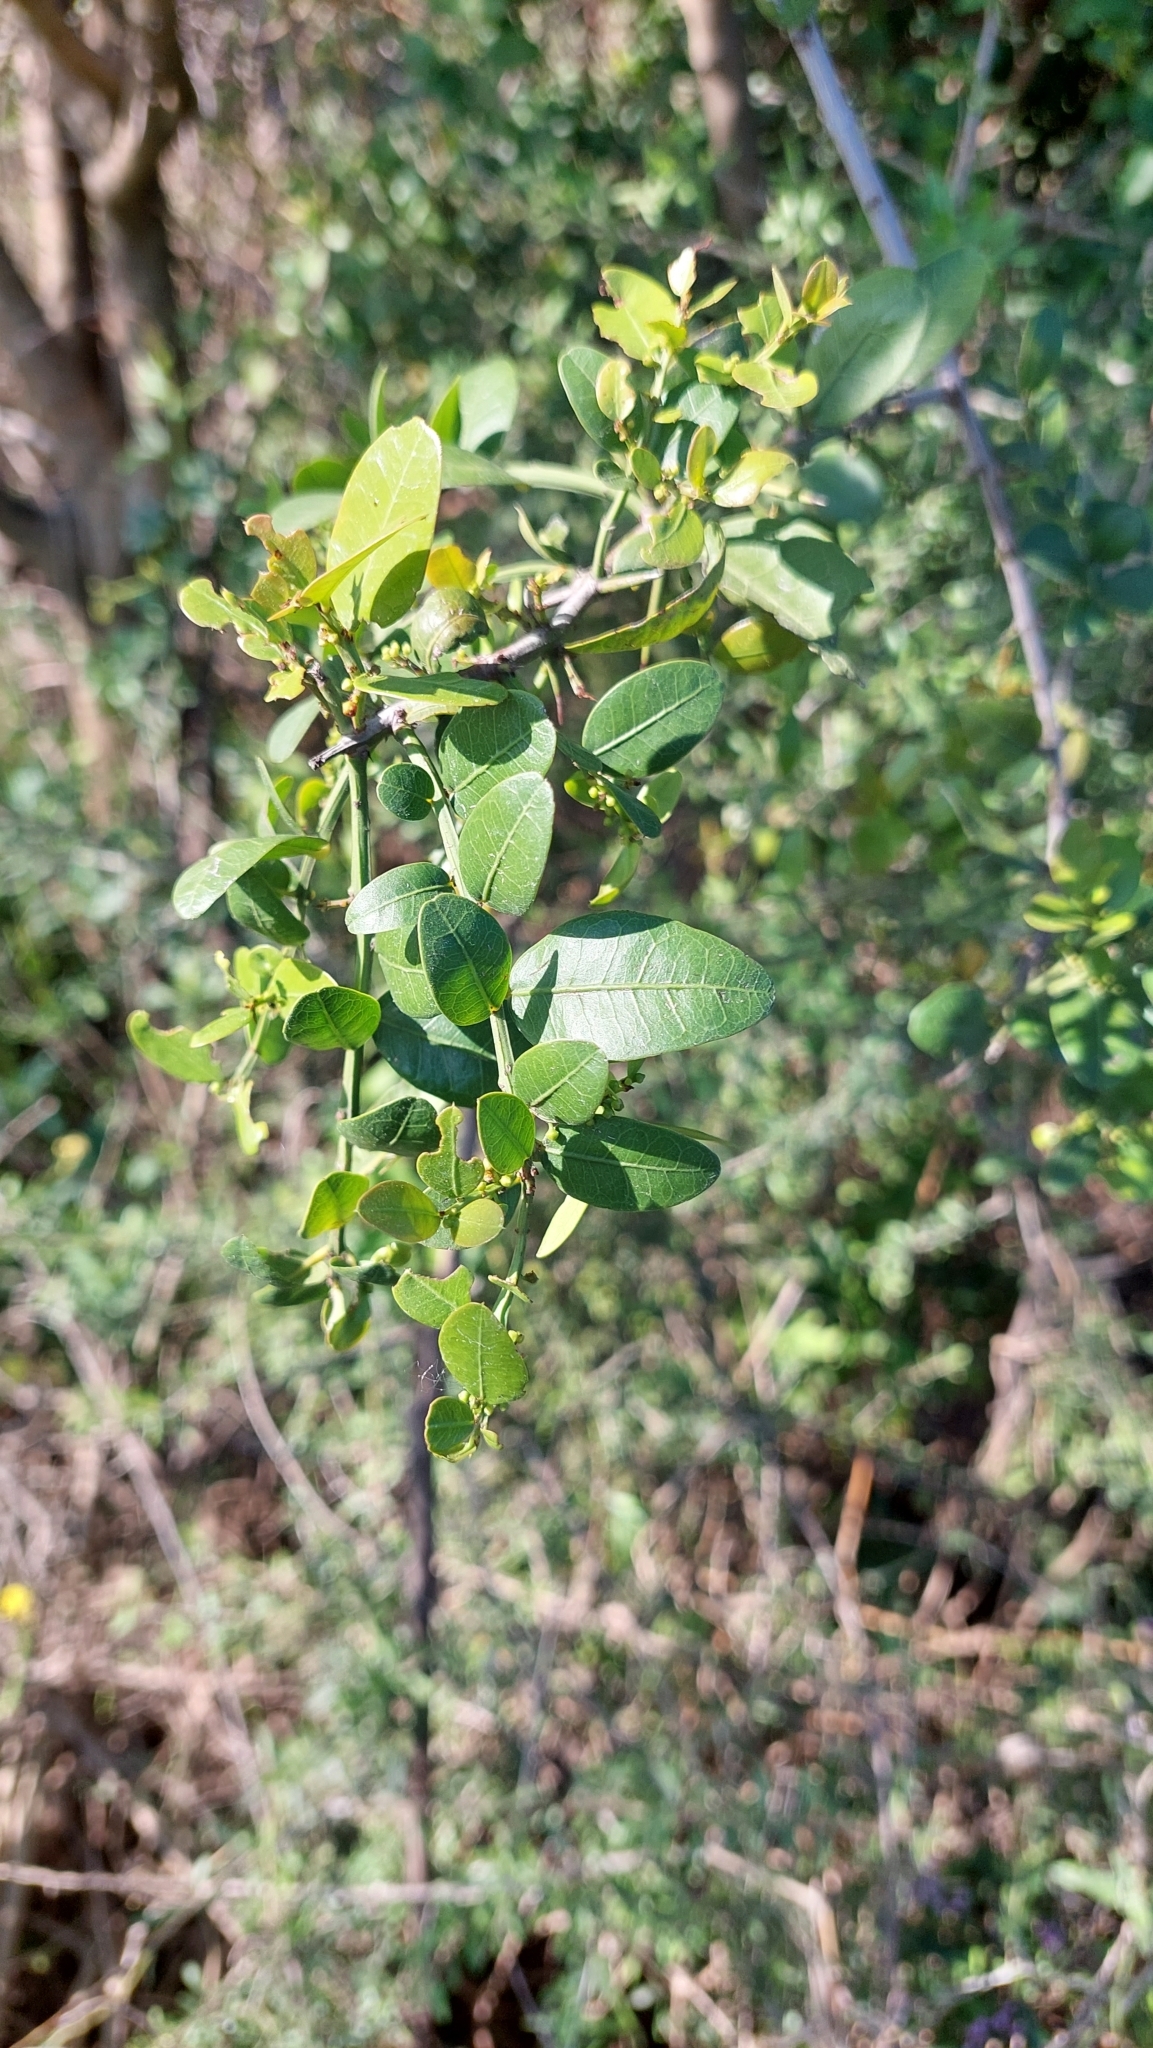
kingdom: Plantae
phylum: Tracheophyta
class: Magnoliopsida
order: Rosales
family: Rhamnaceae
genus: Scutia
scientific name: Scutia buxifolia
